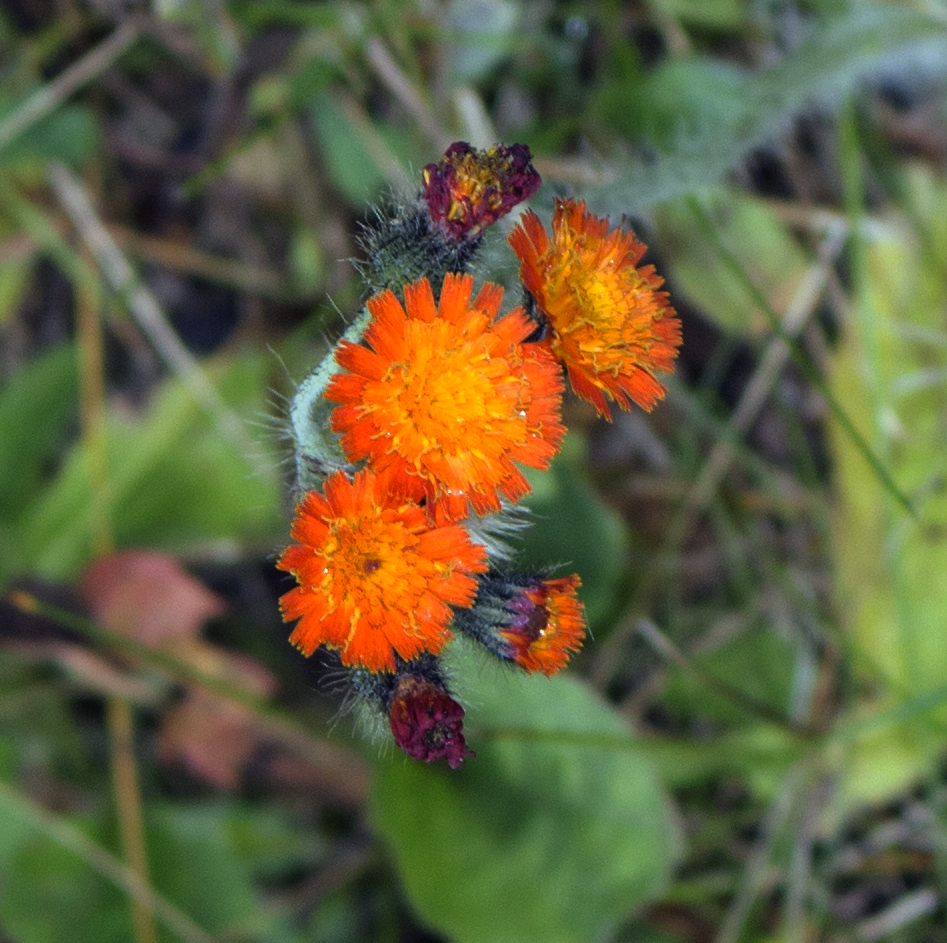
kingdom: Plantae
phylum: Tracheophyta
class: Magnoliopsida
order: Asterales
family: Asteraceae
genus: Pilosella
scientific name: Pilosella aurantiaca
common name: Fox-and-cubs
